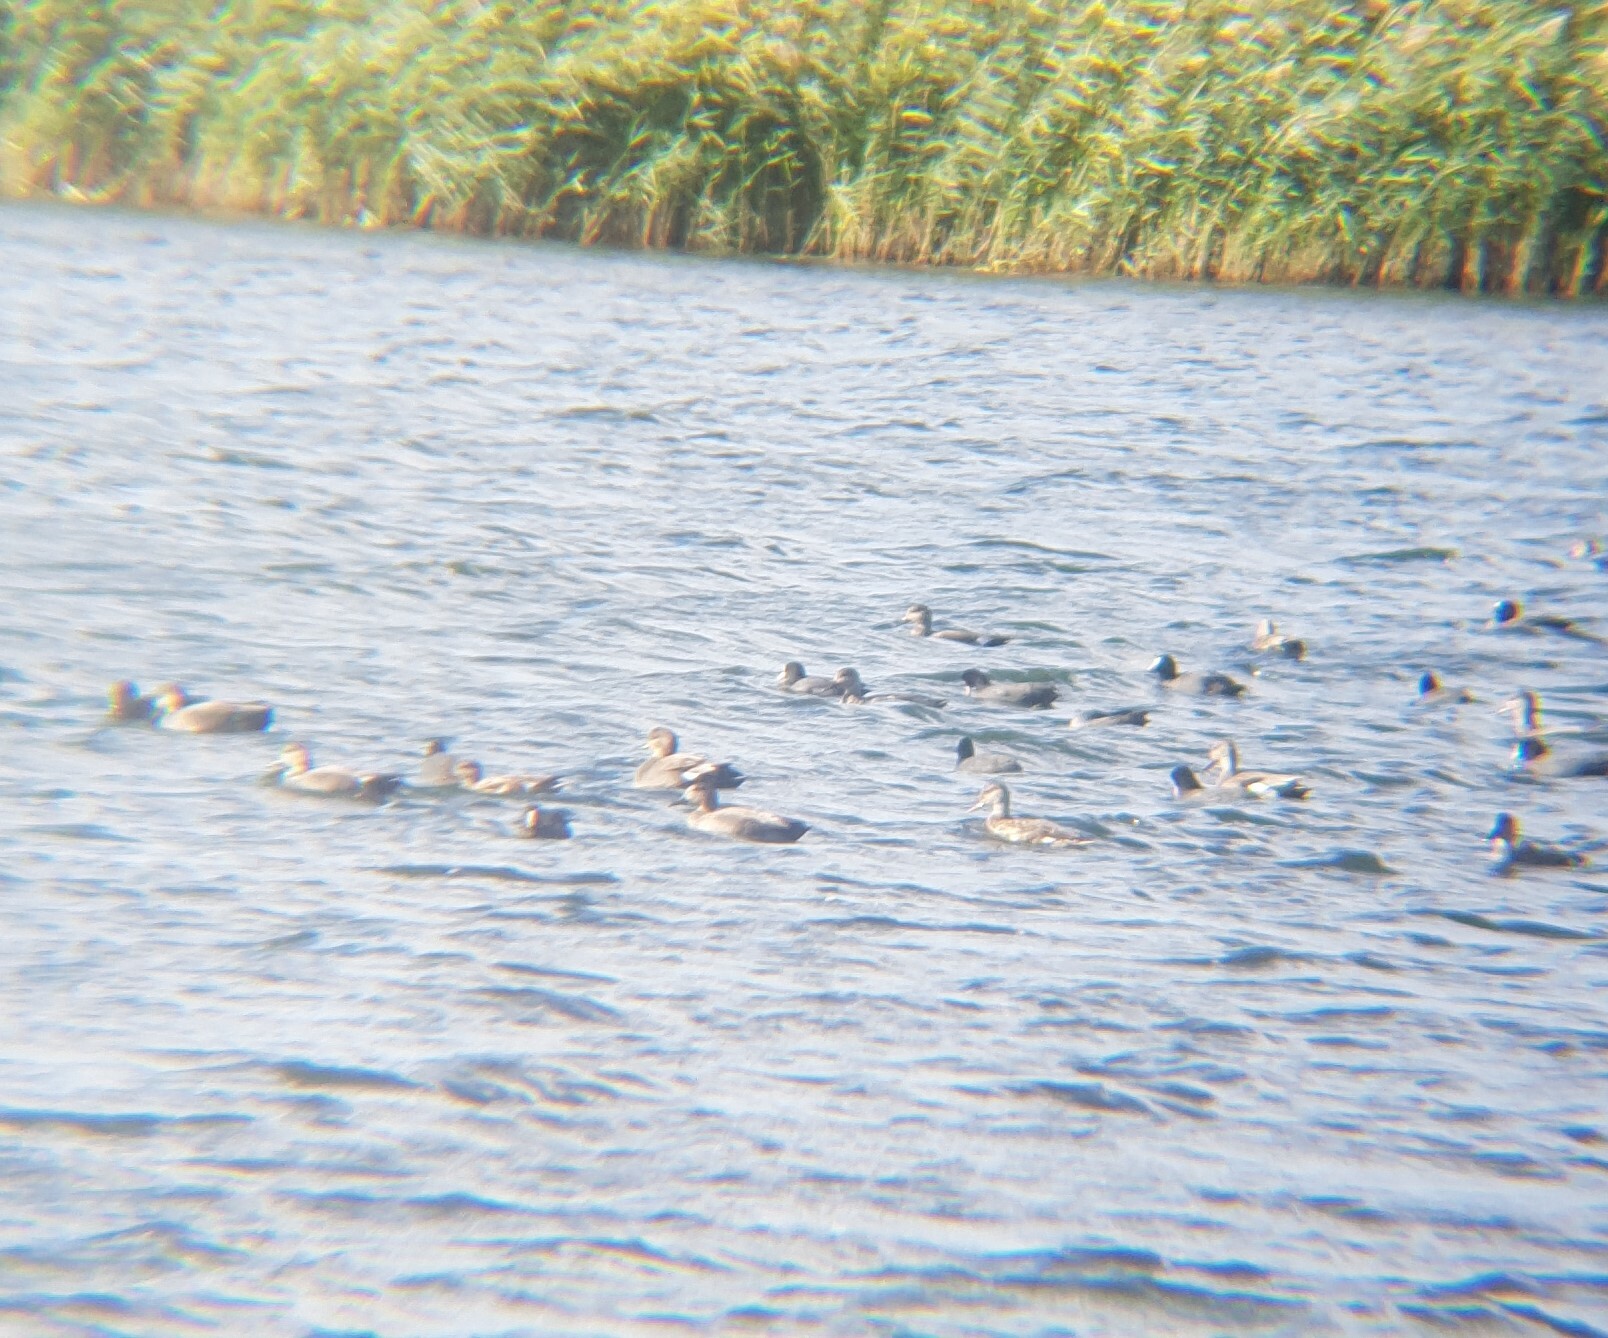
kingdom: Animalia
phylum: Chordata
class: Aves
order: Gruiformes
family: Rallidae
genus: Fulica
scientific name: Fulica atra
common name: Eurasian coot
